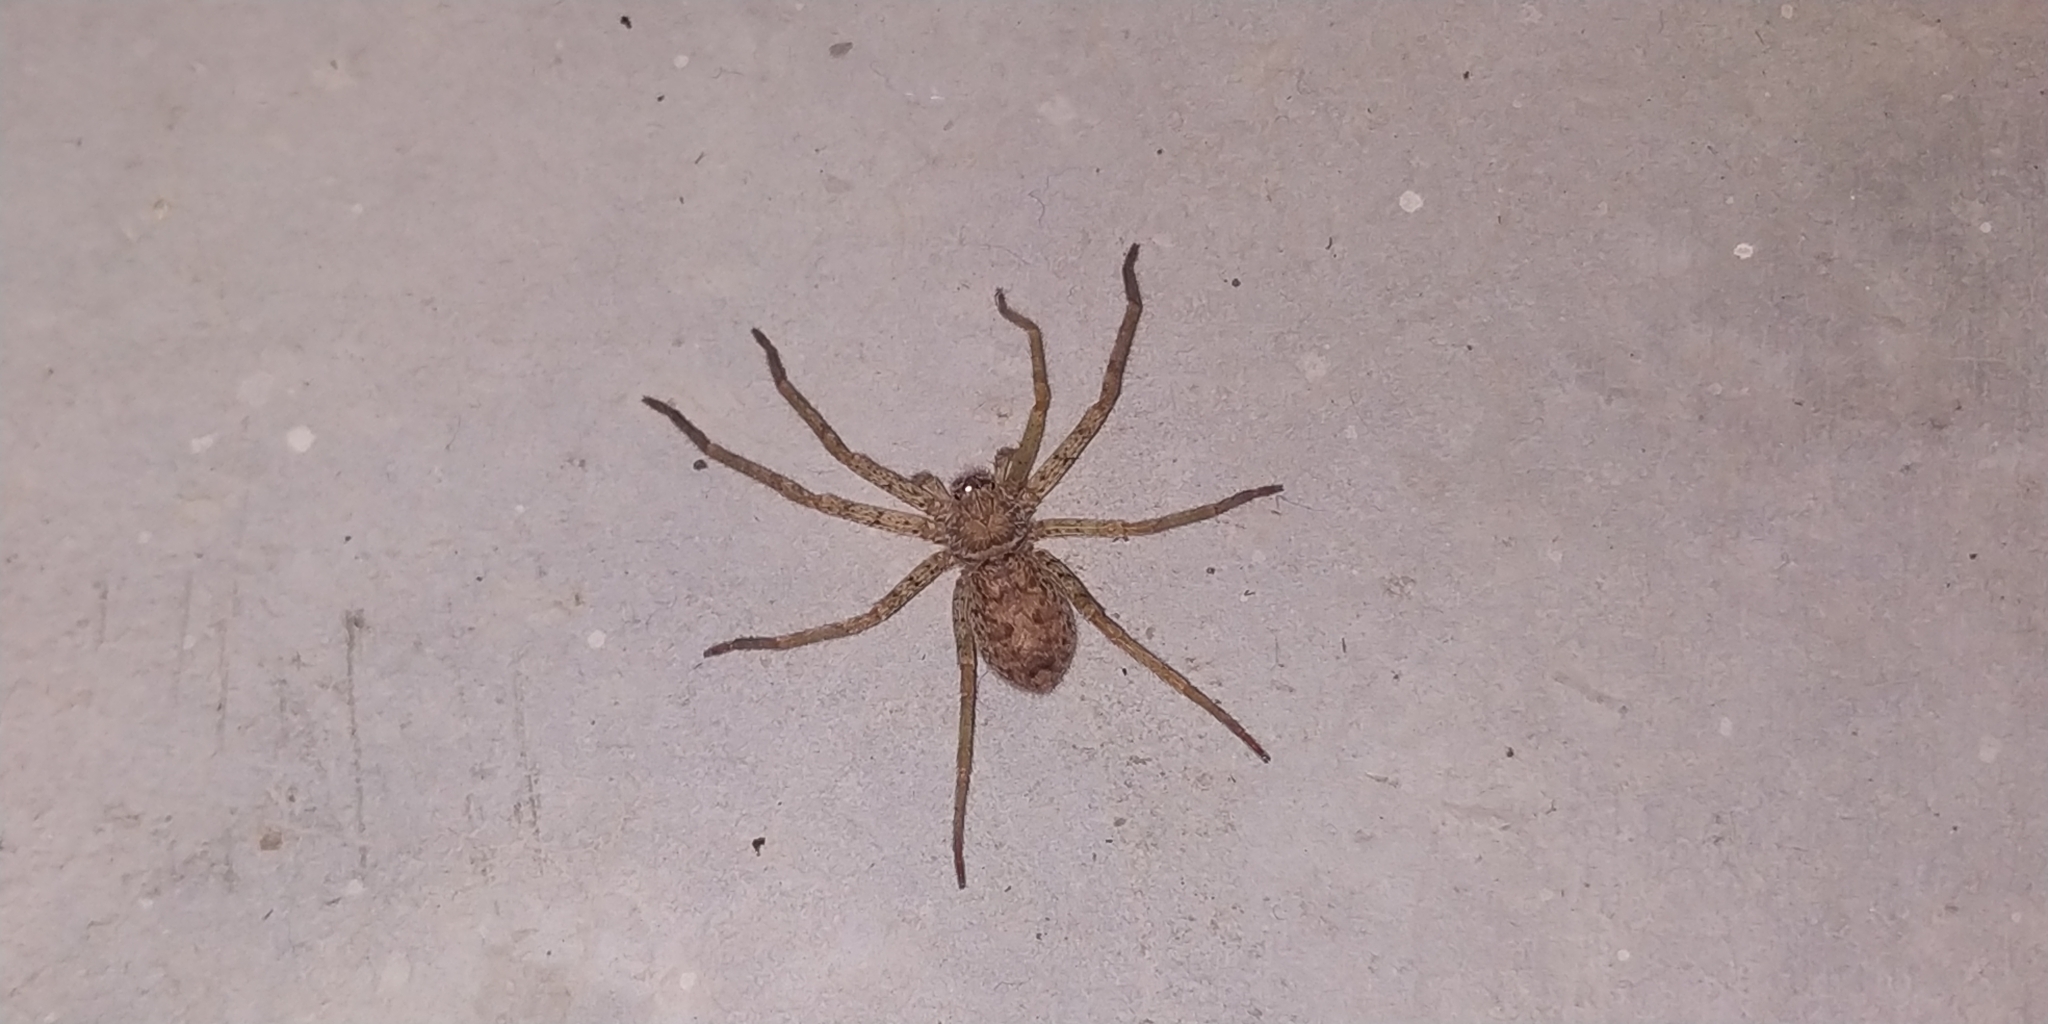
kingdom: Animalia
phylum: Arthropoda
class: Arachnida
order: Araneae
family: Sparassidae
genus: Heteropoda
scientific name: Heteropoda venatoria
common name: Huntsman spider
